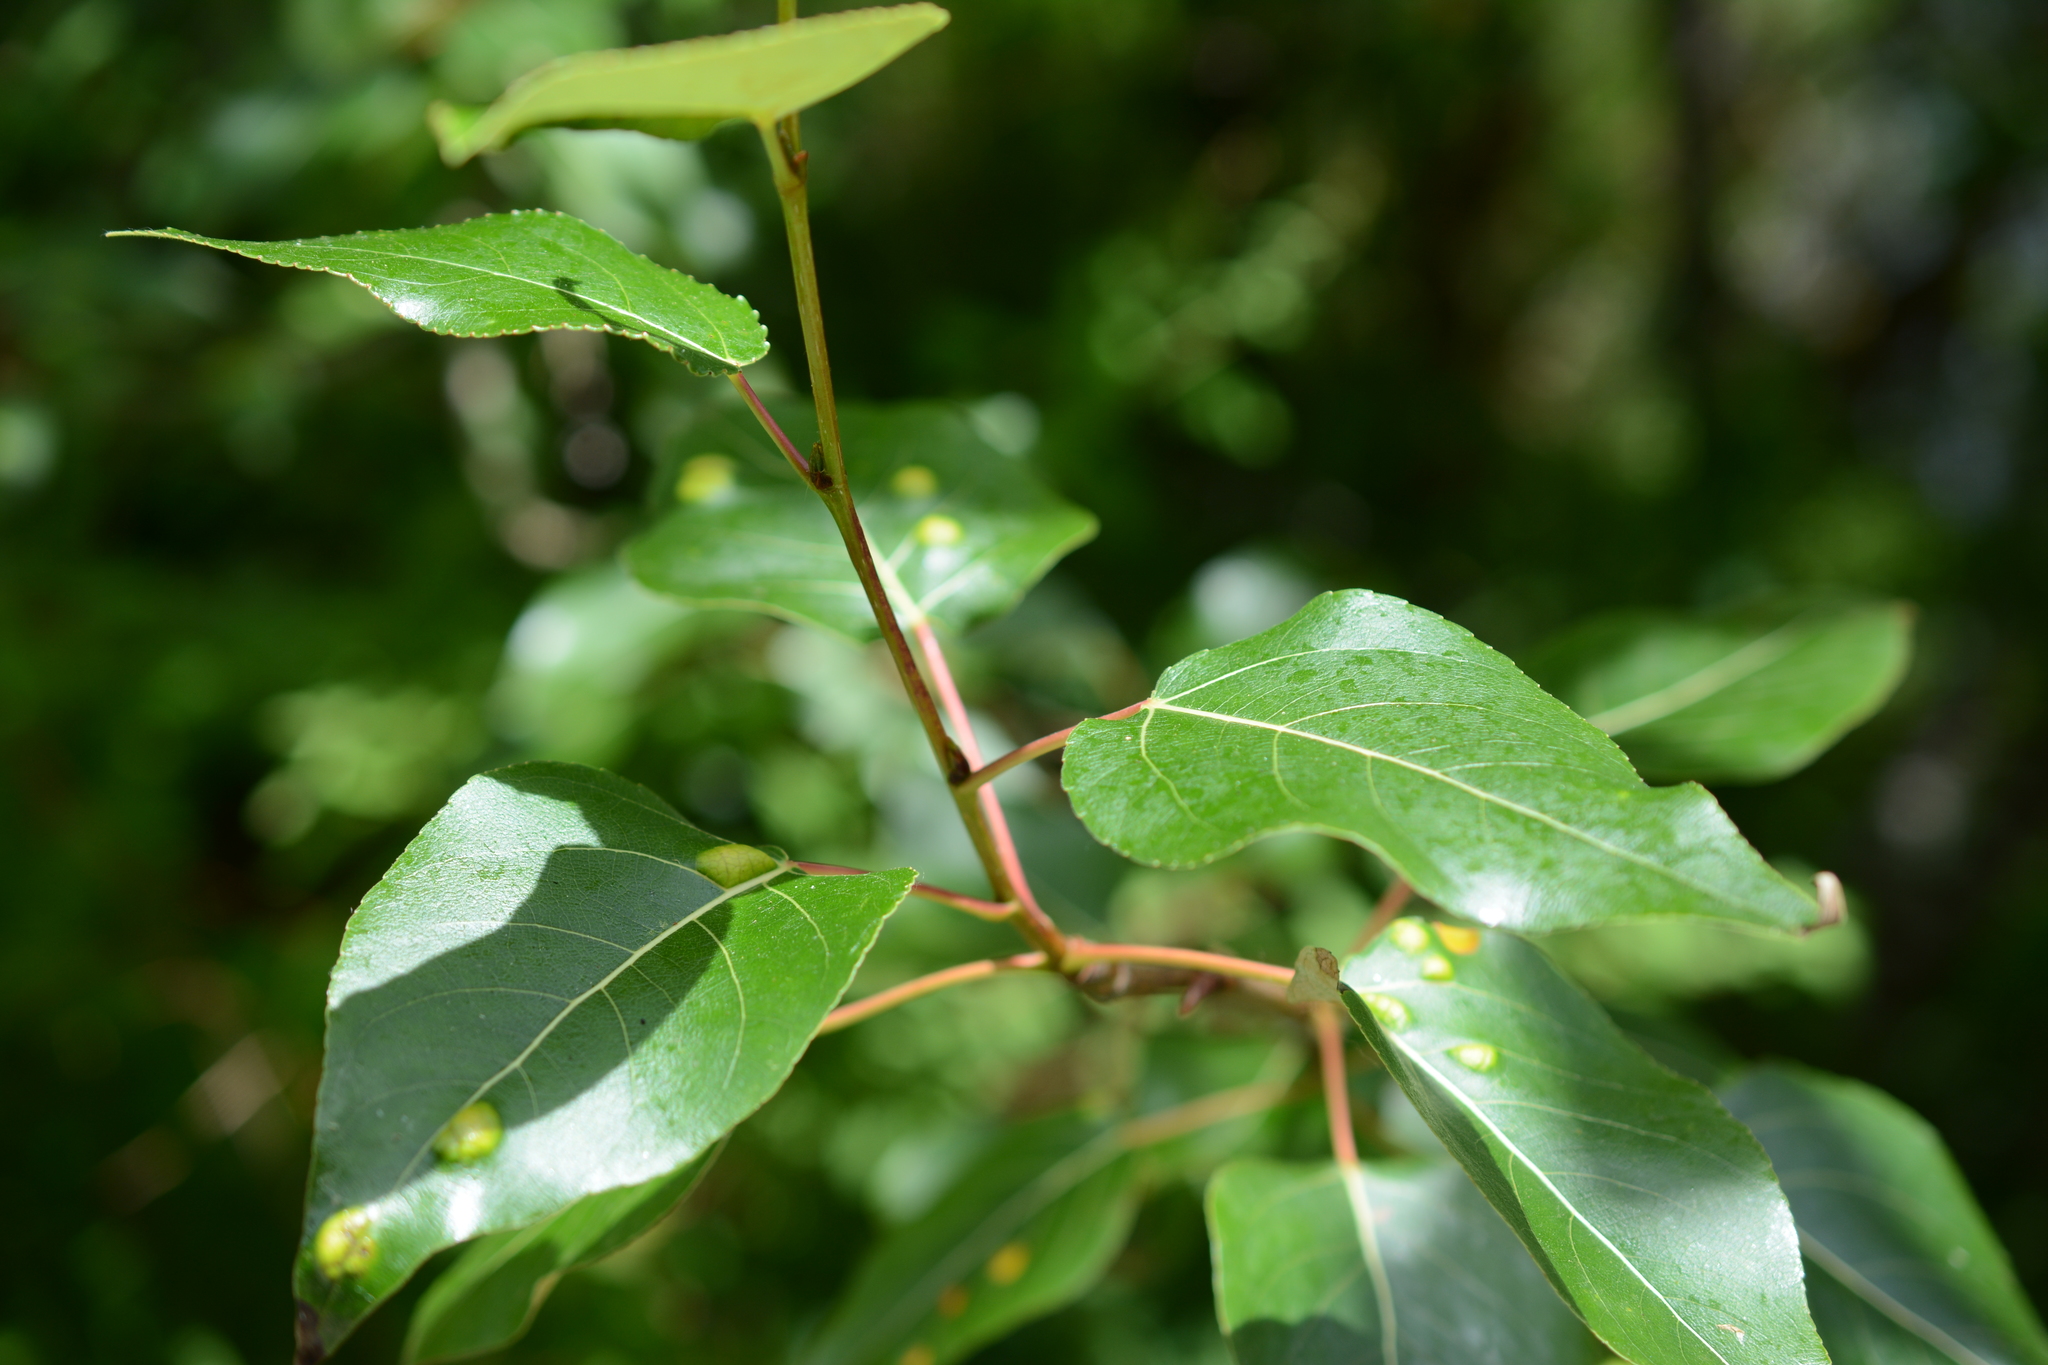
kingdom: Plantae
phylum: Tracheophyta
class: Magnoliopsida
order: Malpighiales
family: Salicaceae
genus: Populus
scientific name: Populus trichocarpa
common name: Black cottonwood
